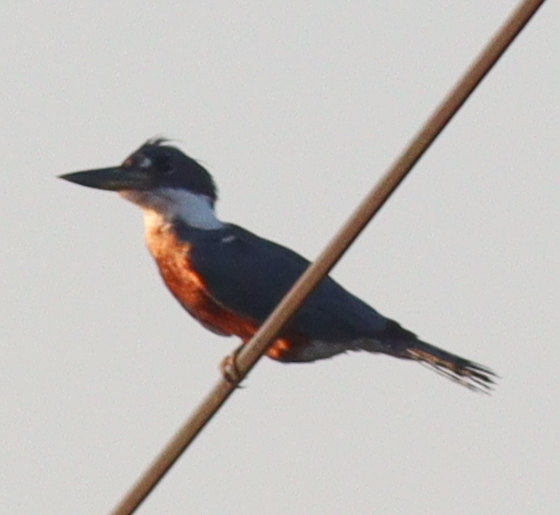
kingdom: Animalia
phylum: Chordata
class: Aves
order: Coraciiformes
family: Alcedinidae
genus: Megaceryle
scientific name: Megaceryle torquata
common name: Ringed kingfisher
